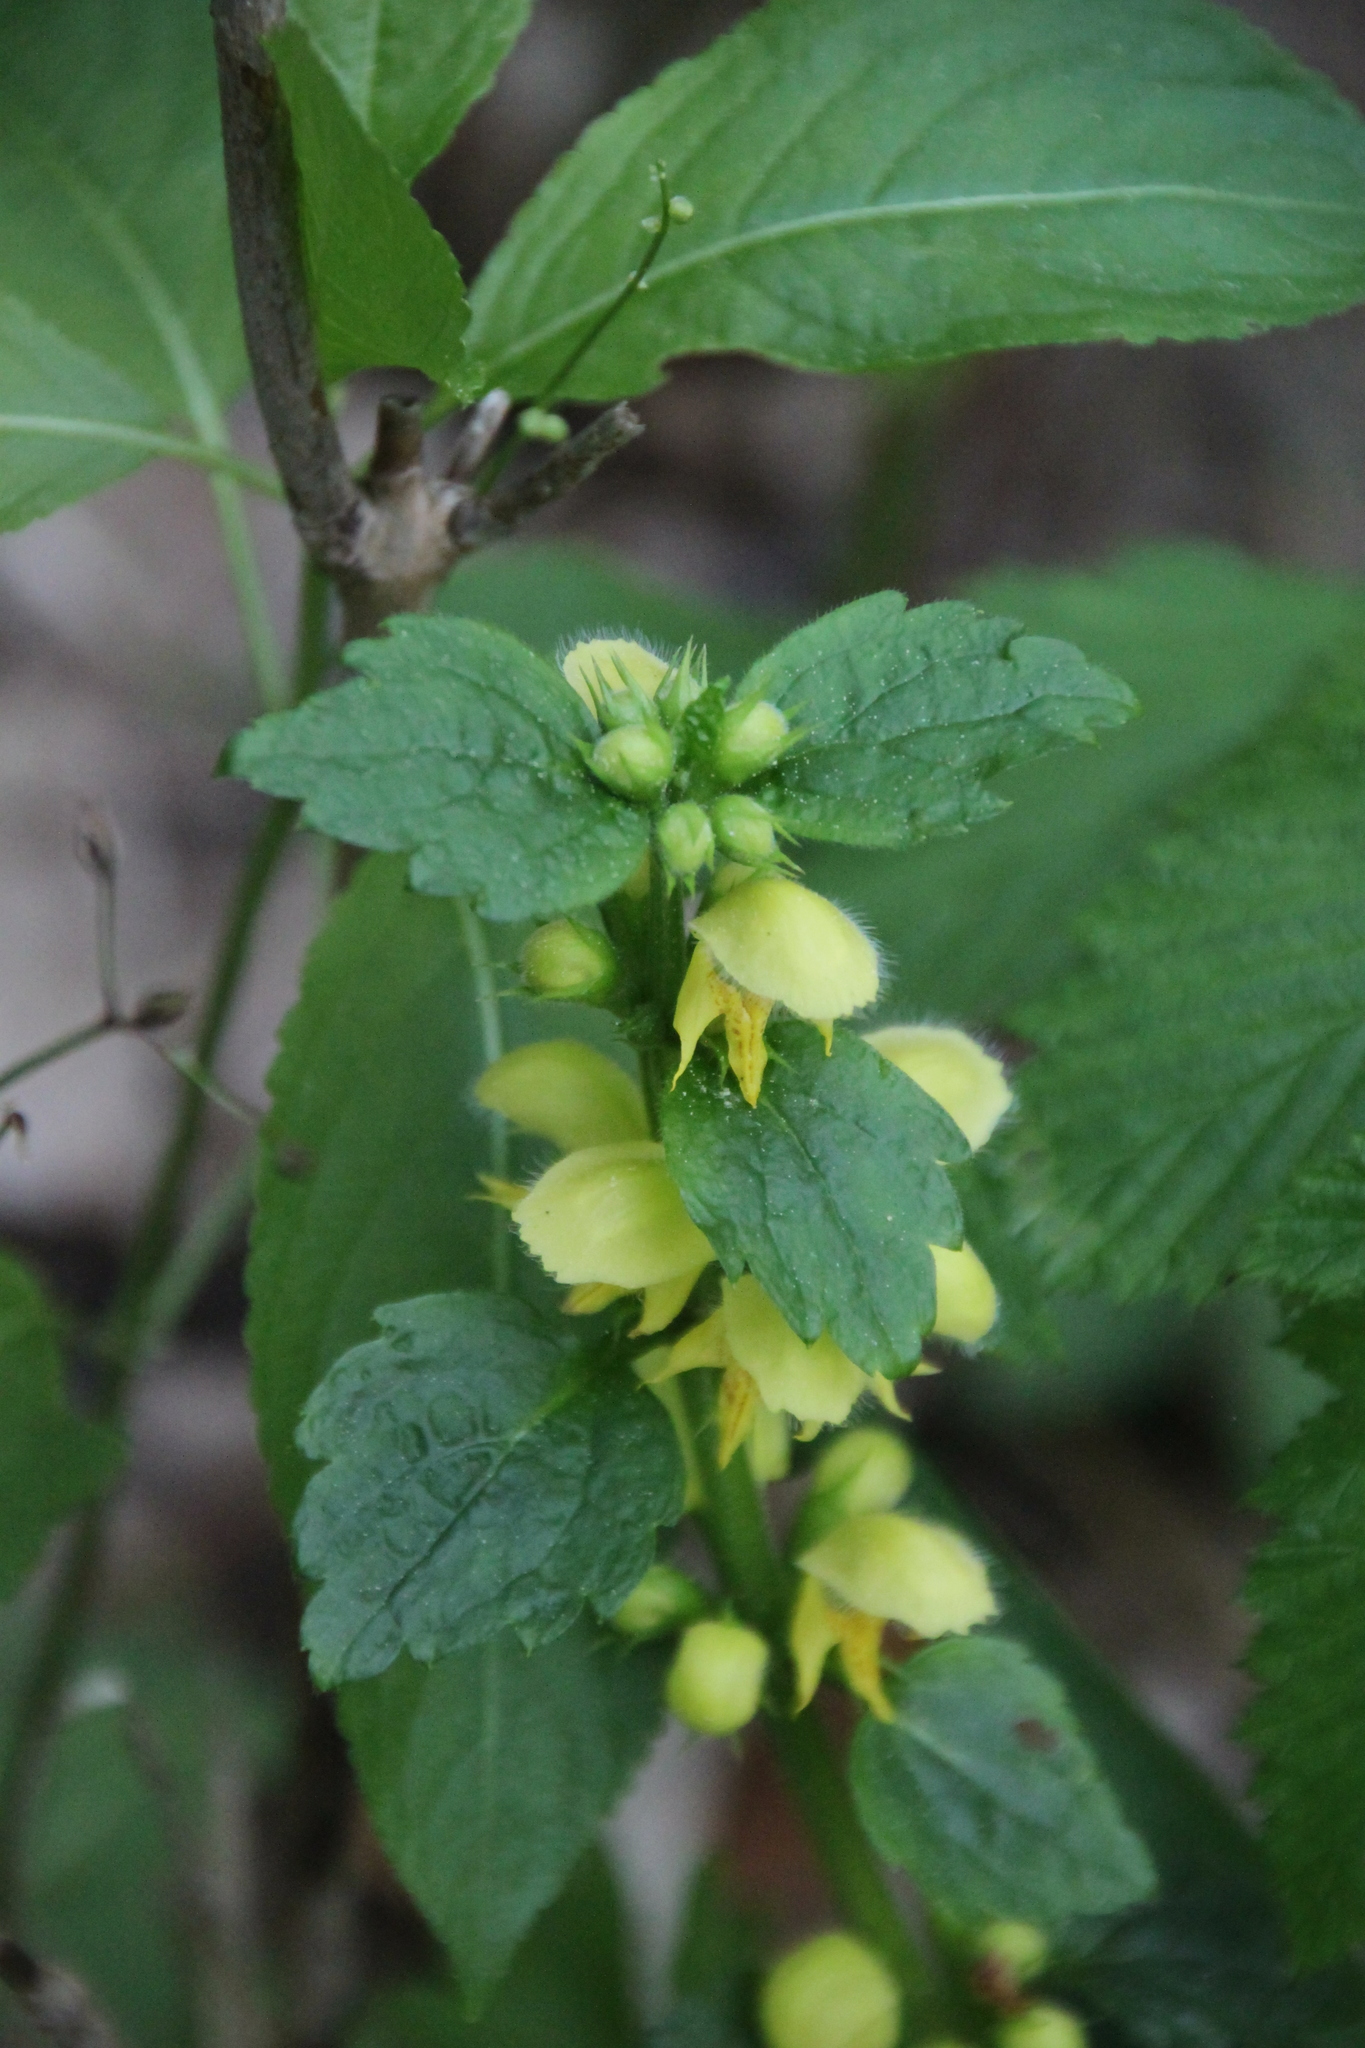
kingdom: Plantae
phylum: Tracheophyta
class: Magnoliopsida
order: Lamiales
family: Lamiaceae
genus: Lamium
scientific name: Lamium galeobdolon
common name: Yellow archangel
